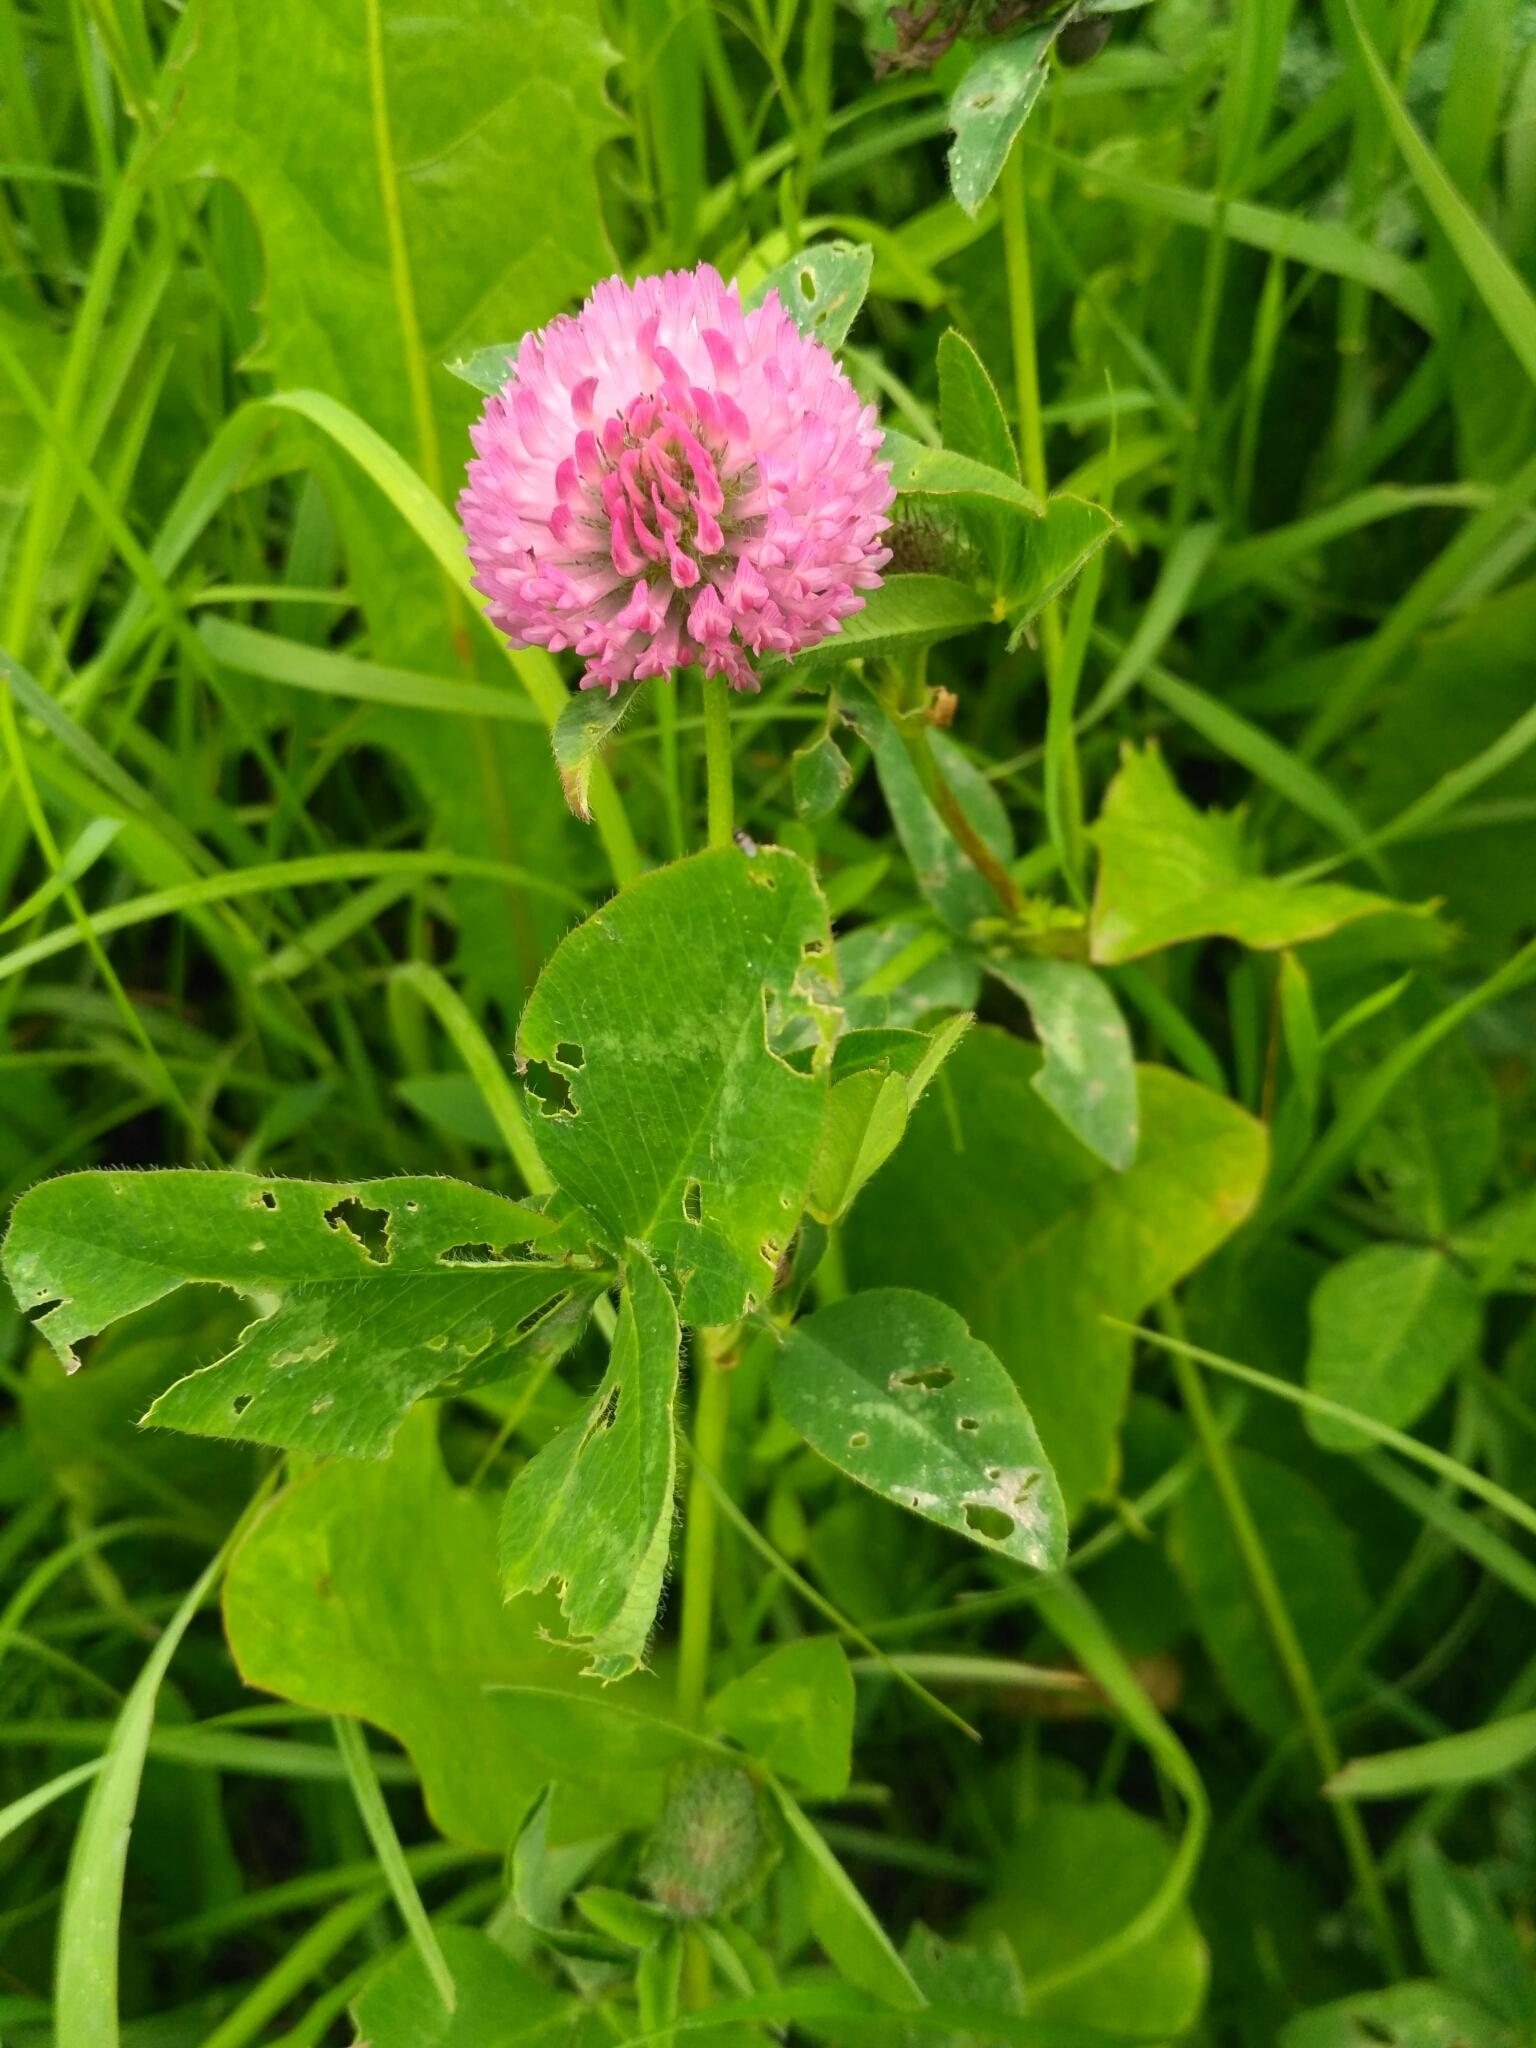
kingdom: Plantae
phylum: Tracheophyta
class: Magnoliopsida
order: Fabales
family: Fabaceae
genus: Trifolium
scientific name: Trifolium pratense
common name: Red clover
